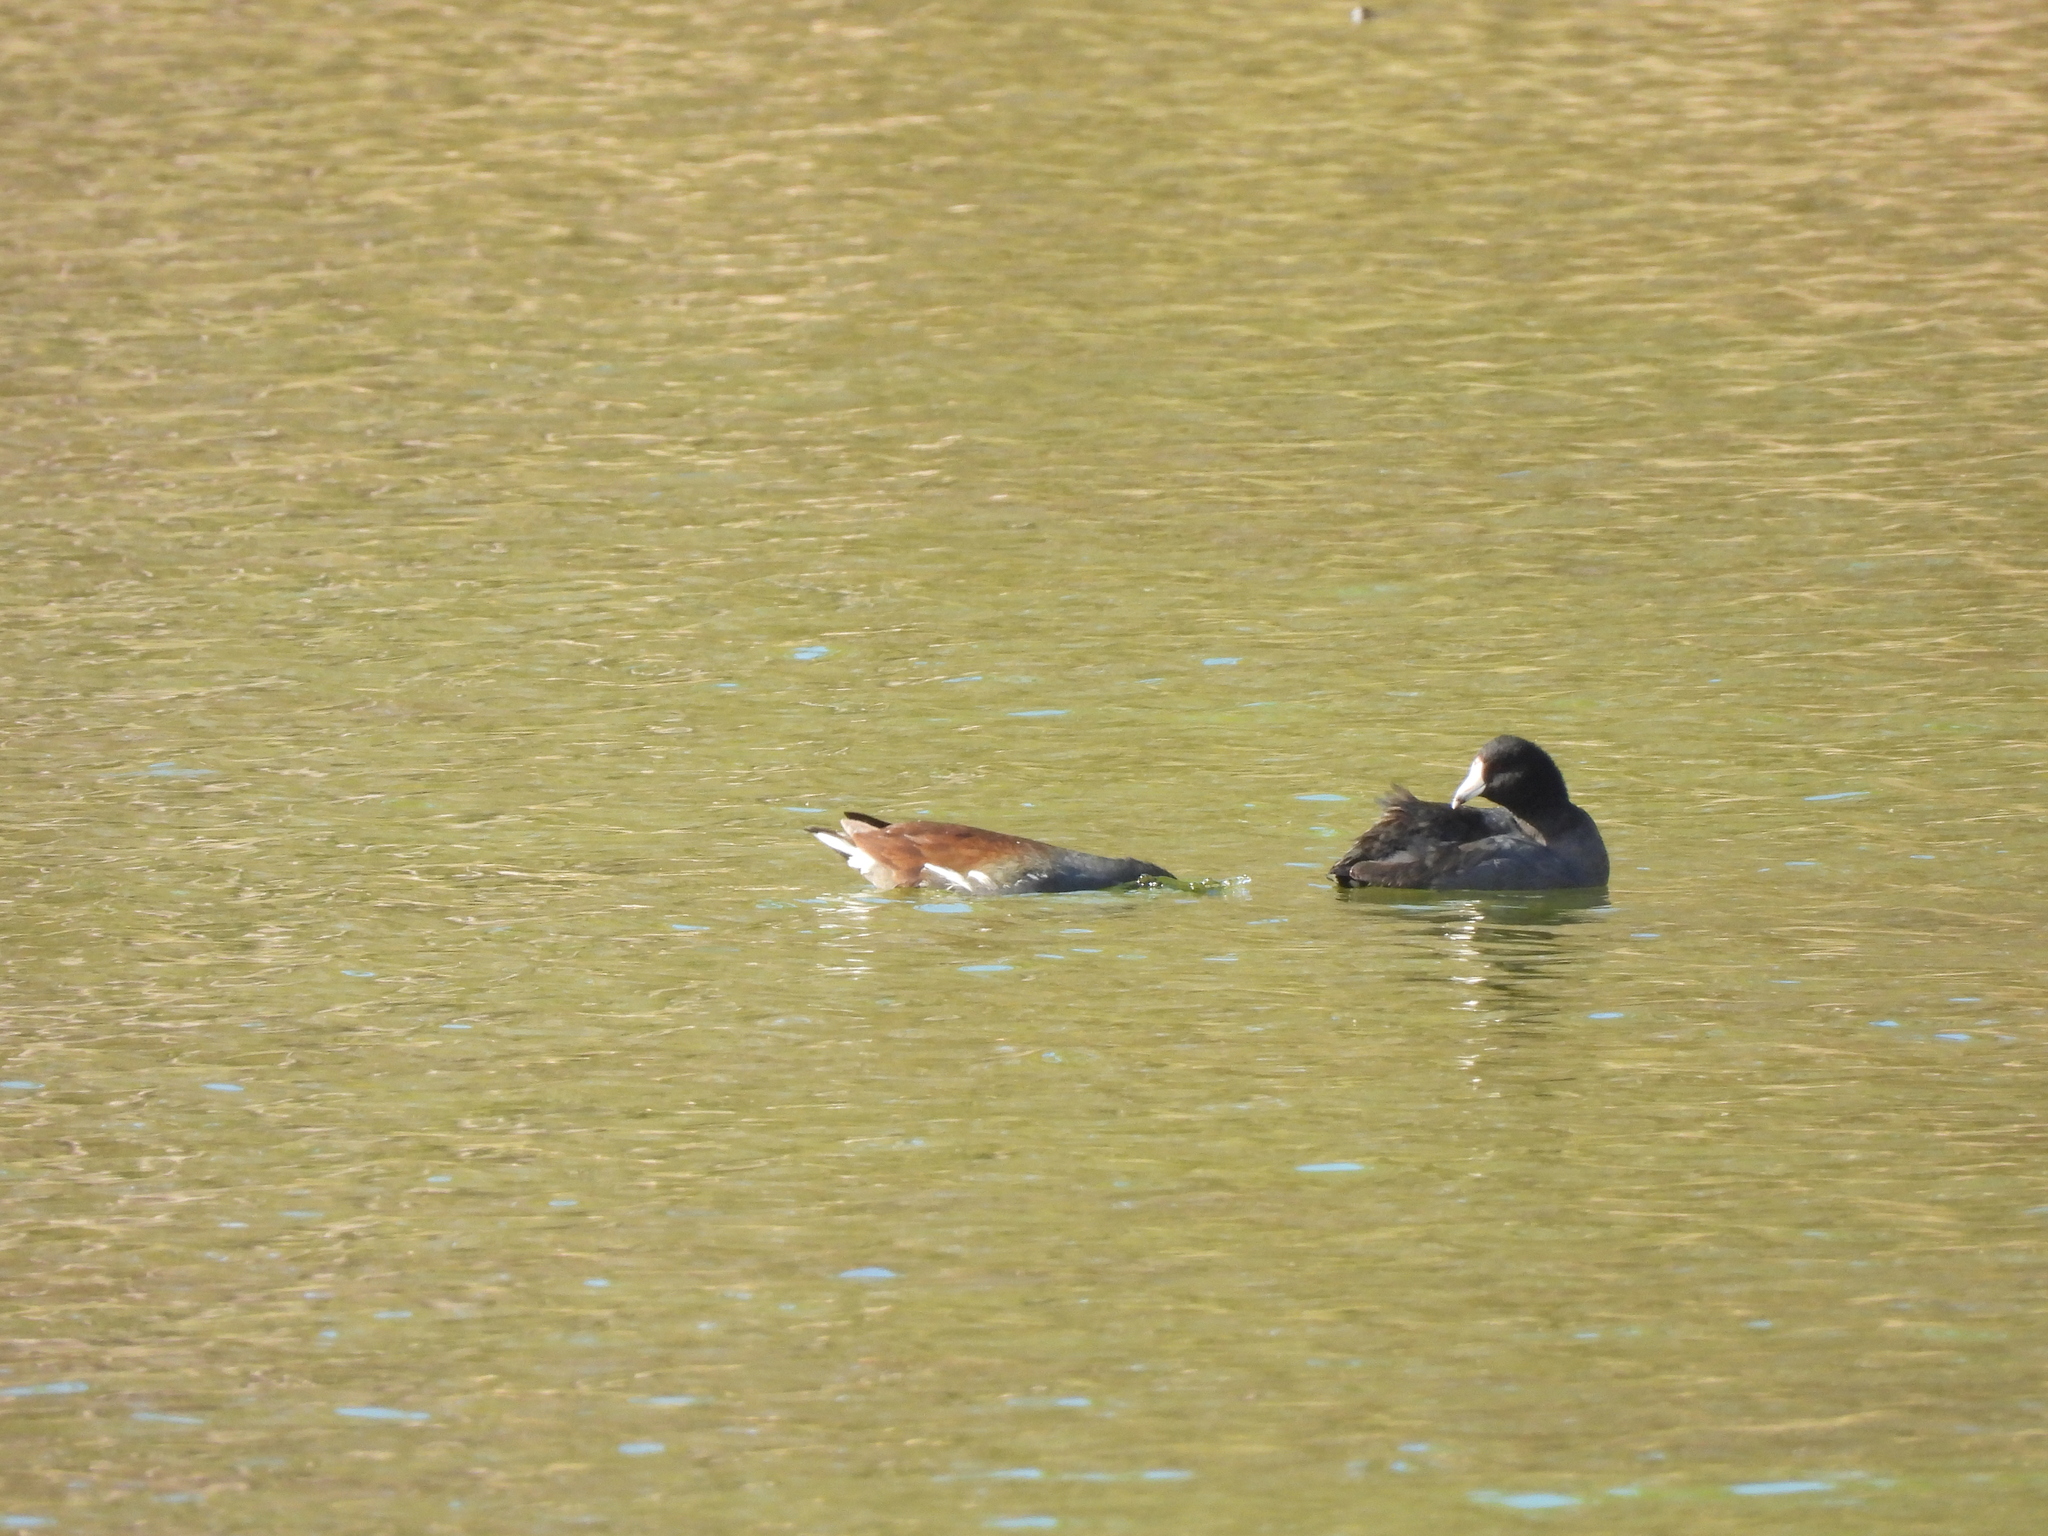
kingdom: Animalia
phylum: Chordata
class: Aves
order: Gruiformes
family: Rallidae
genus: Fulica
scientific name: Fulica americana
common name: American coot
